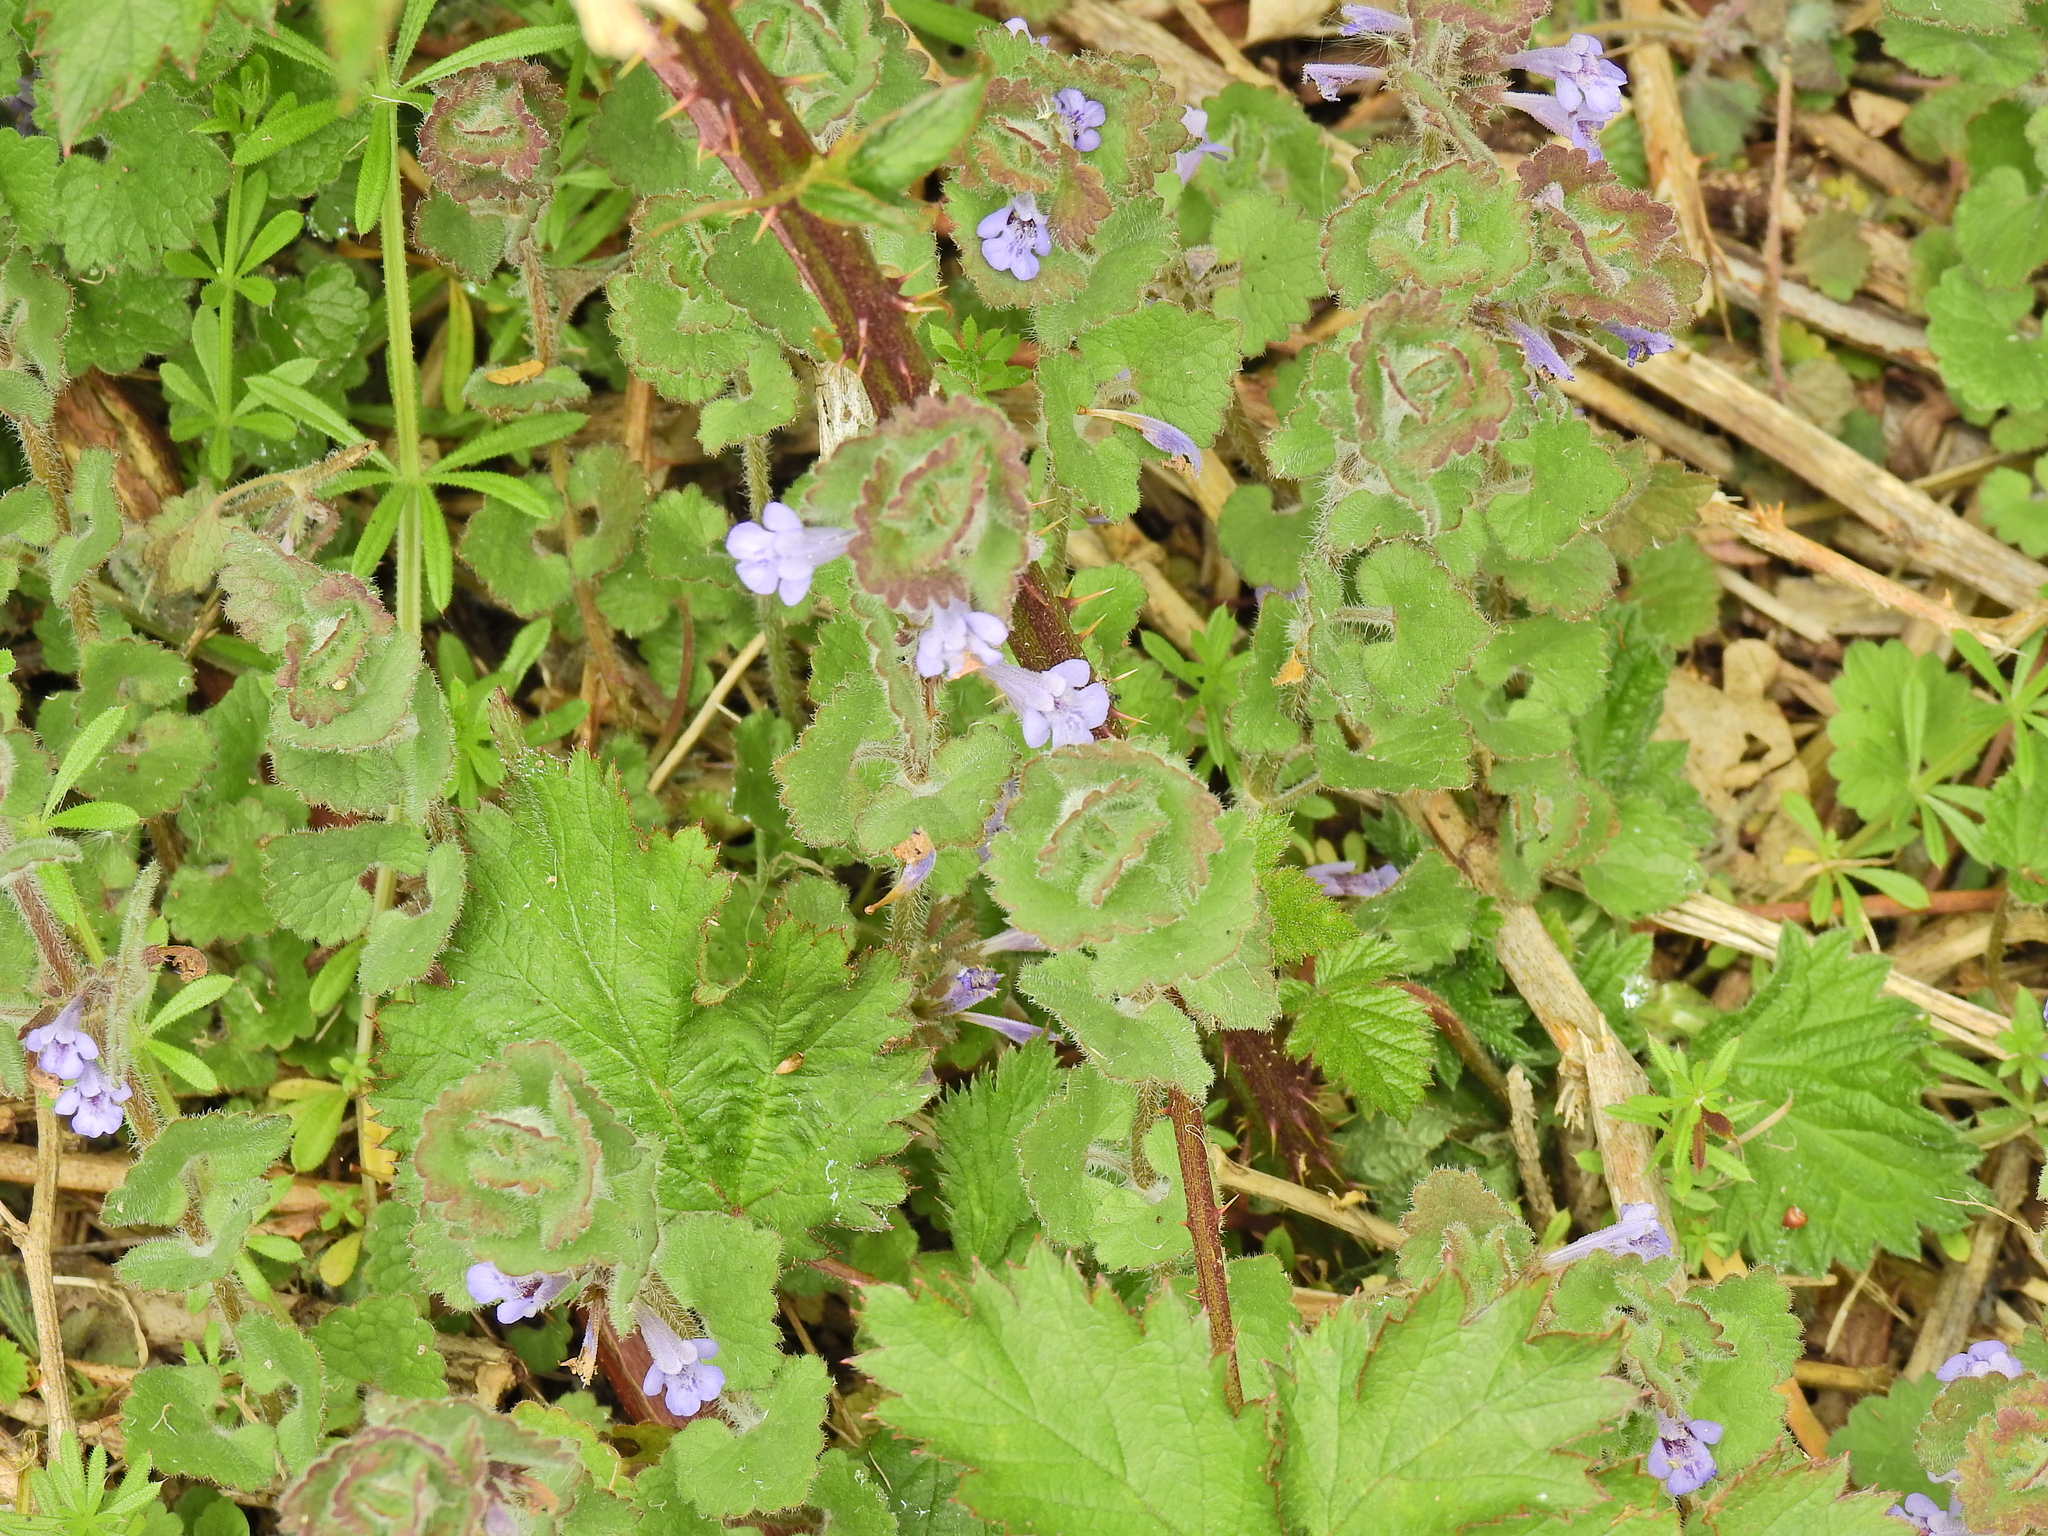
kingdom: Plantae
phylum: Tracheophyta
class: Magnoliopsida
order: Lamiales
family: Lamiaceae
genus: Glechoma
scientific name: Glechoma hederacea
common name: Ground ivy
